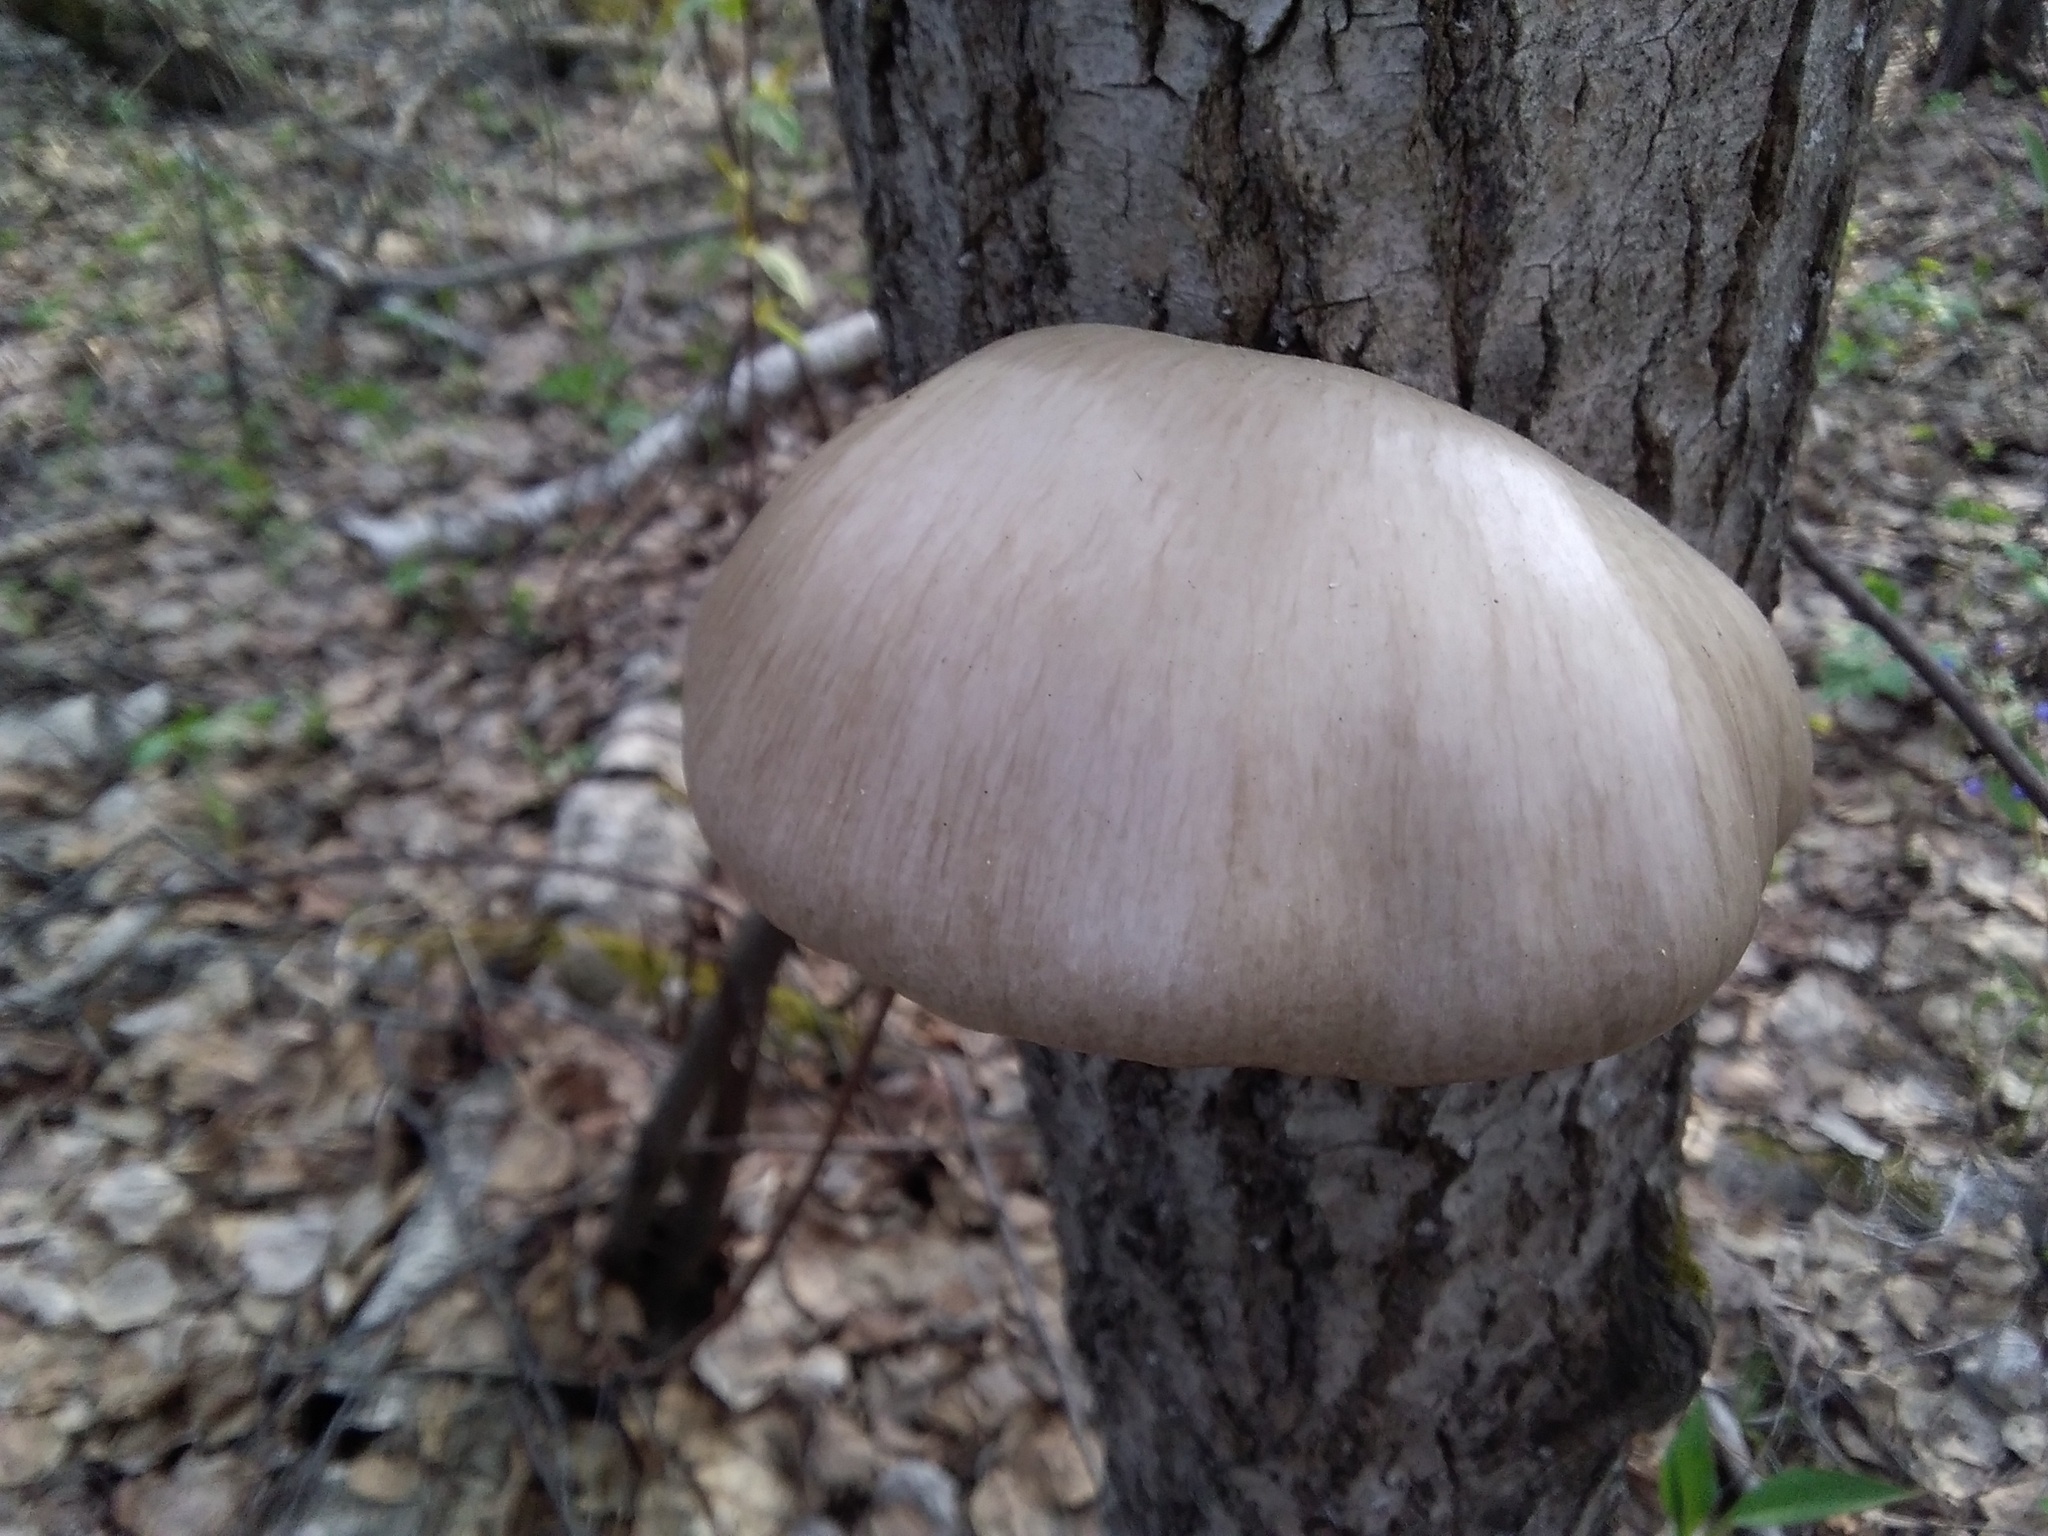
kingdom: Fungi
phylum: Basidiomycota
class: Agaricomycetes
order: Agaricales
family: Pleurotaceae
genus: Pleurotus
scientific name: Pleurotus calyptratus
